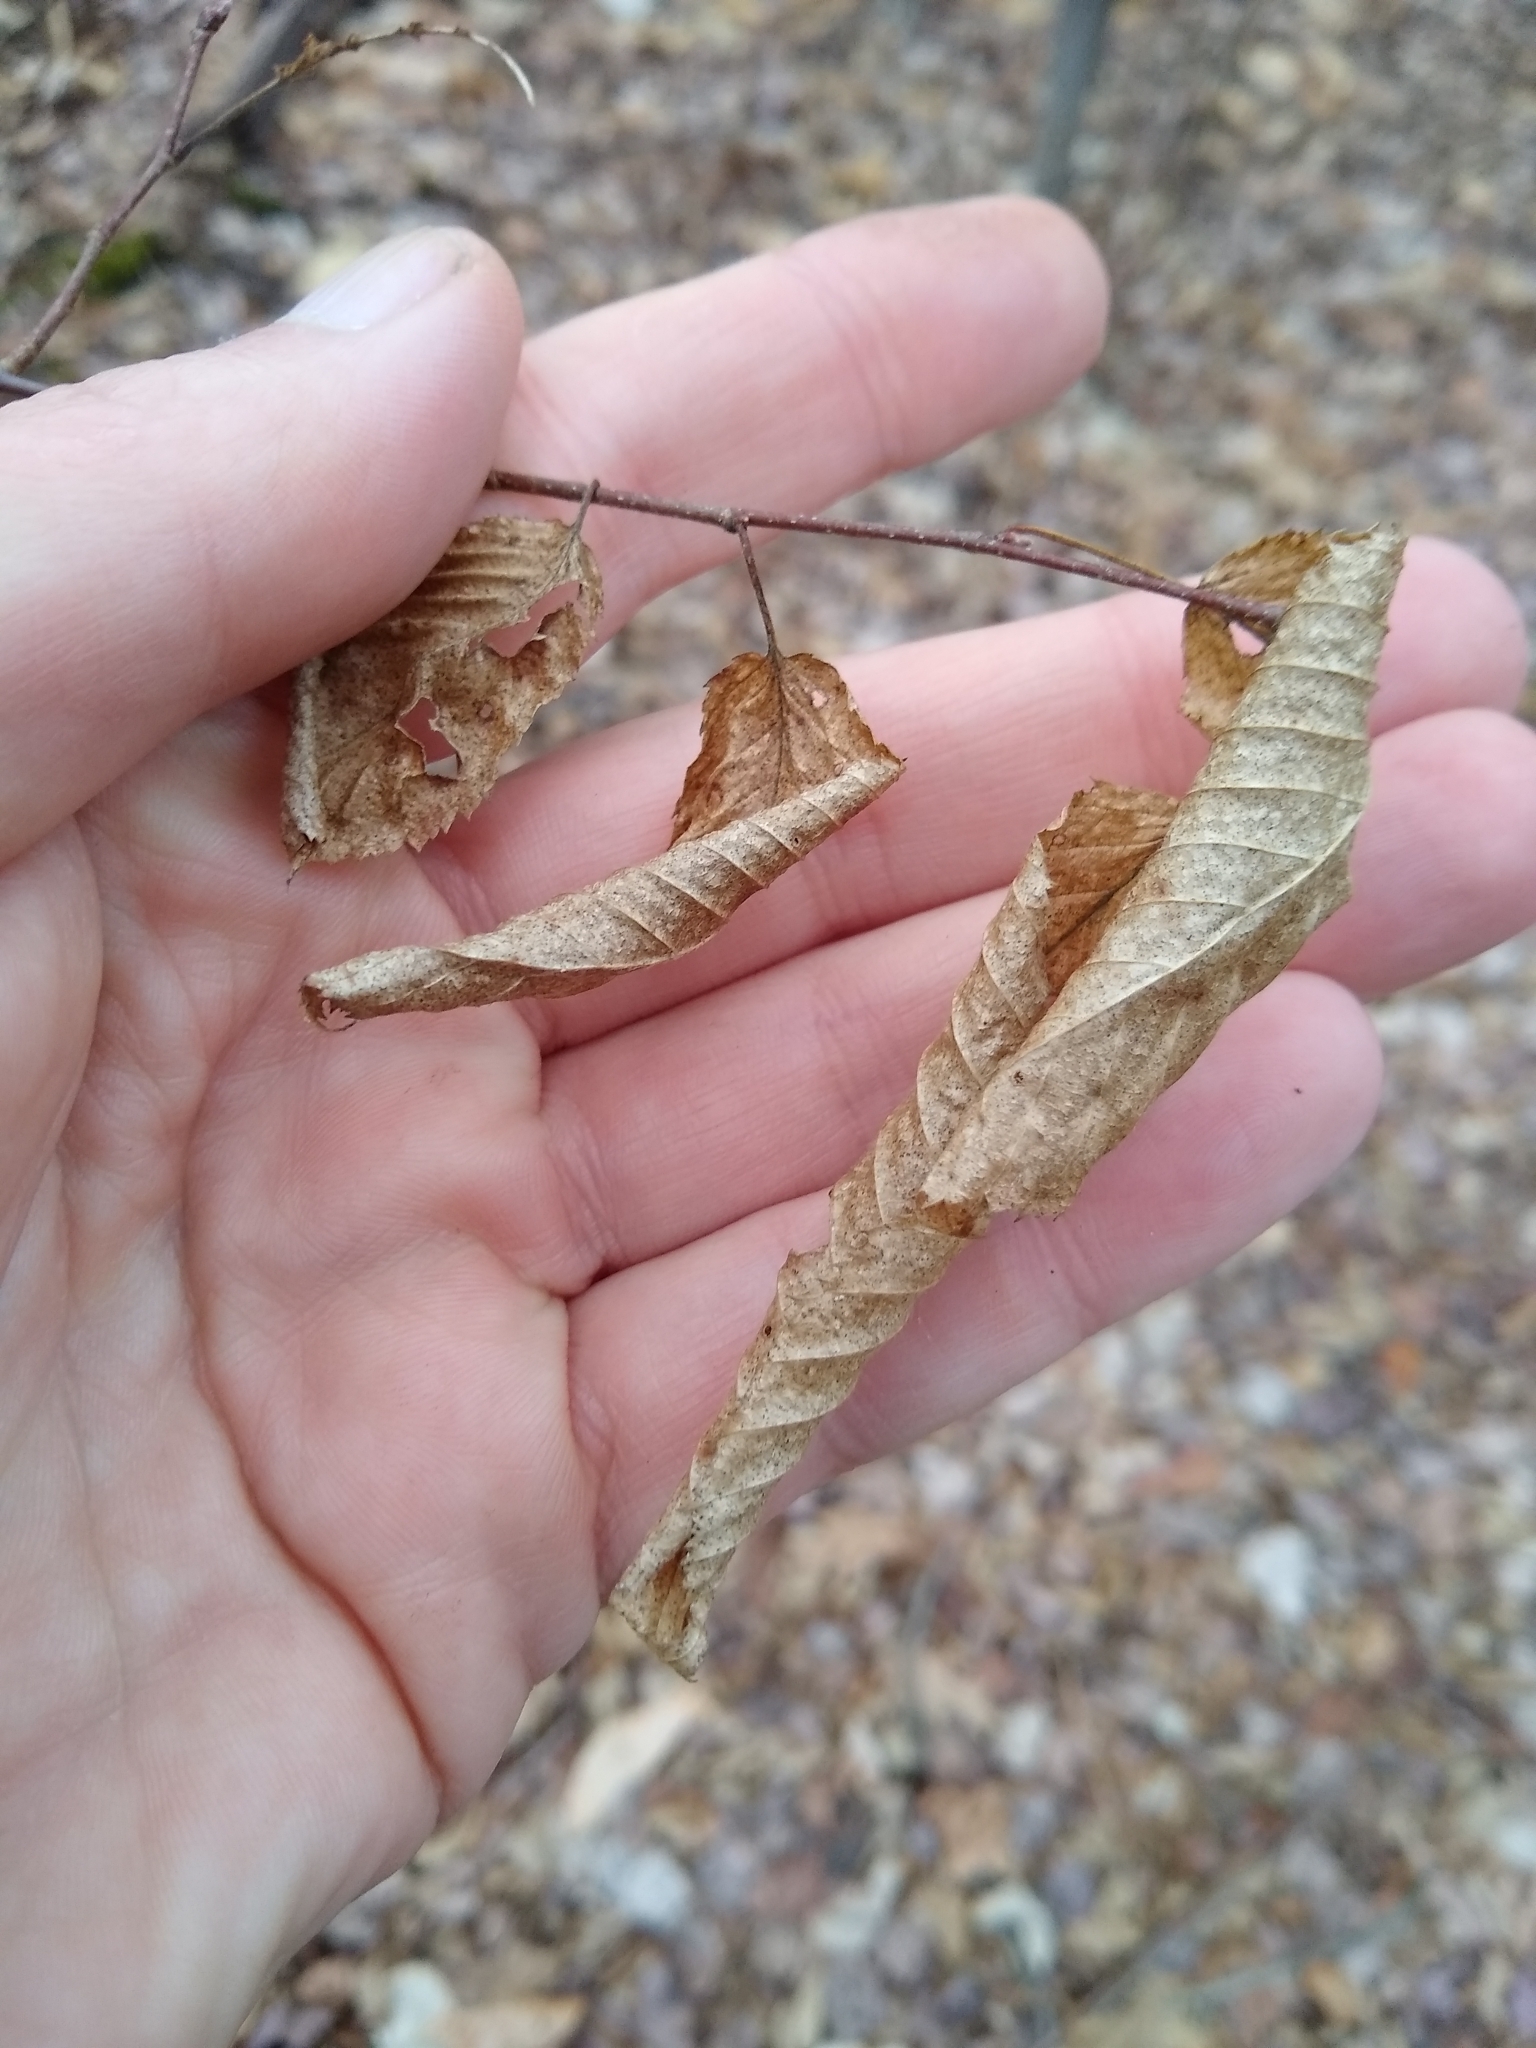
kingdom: Plantae
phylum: Tracheophyta
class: Magnoliopsida
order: Fagales
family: Betulaceae
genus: Carpinus
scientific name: Carpinus caroliniana
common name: American hornbeam
